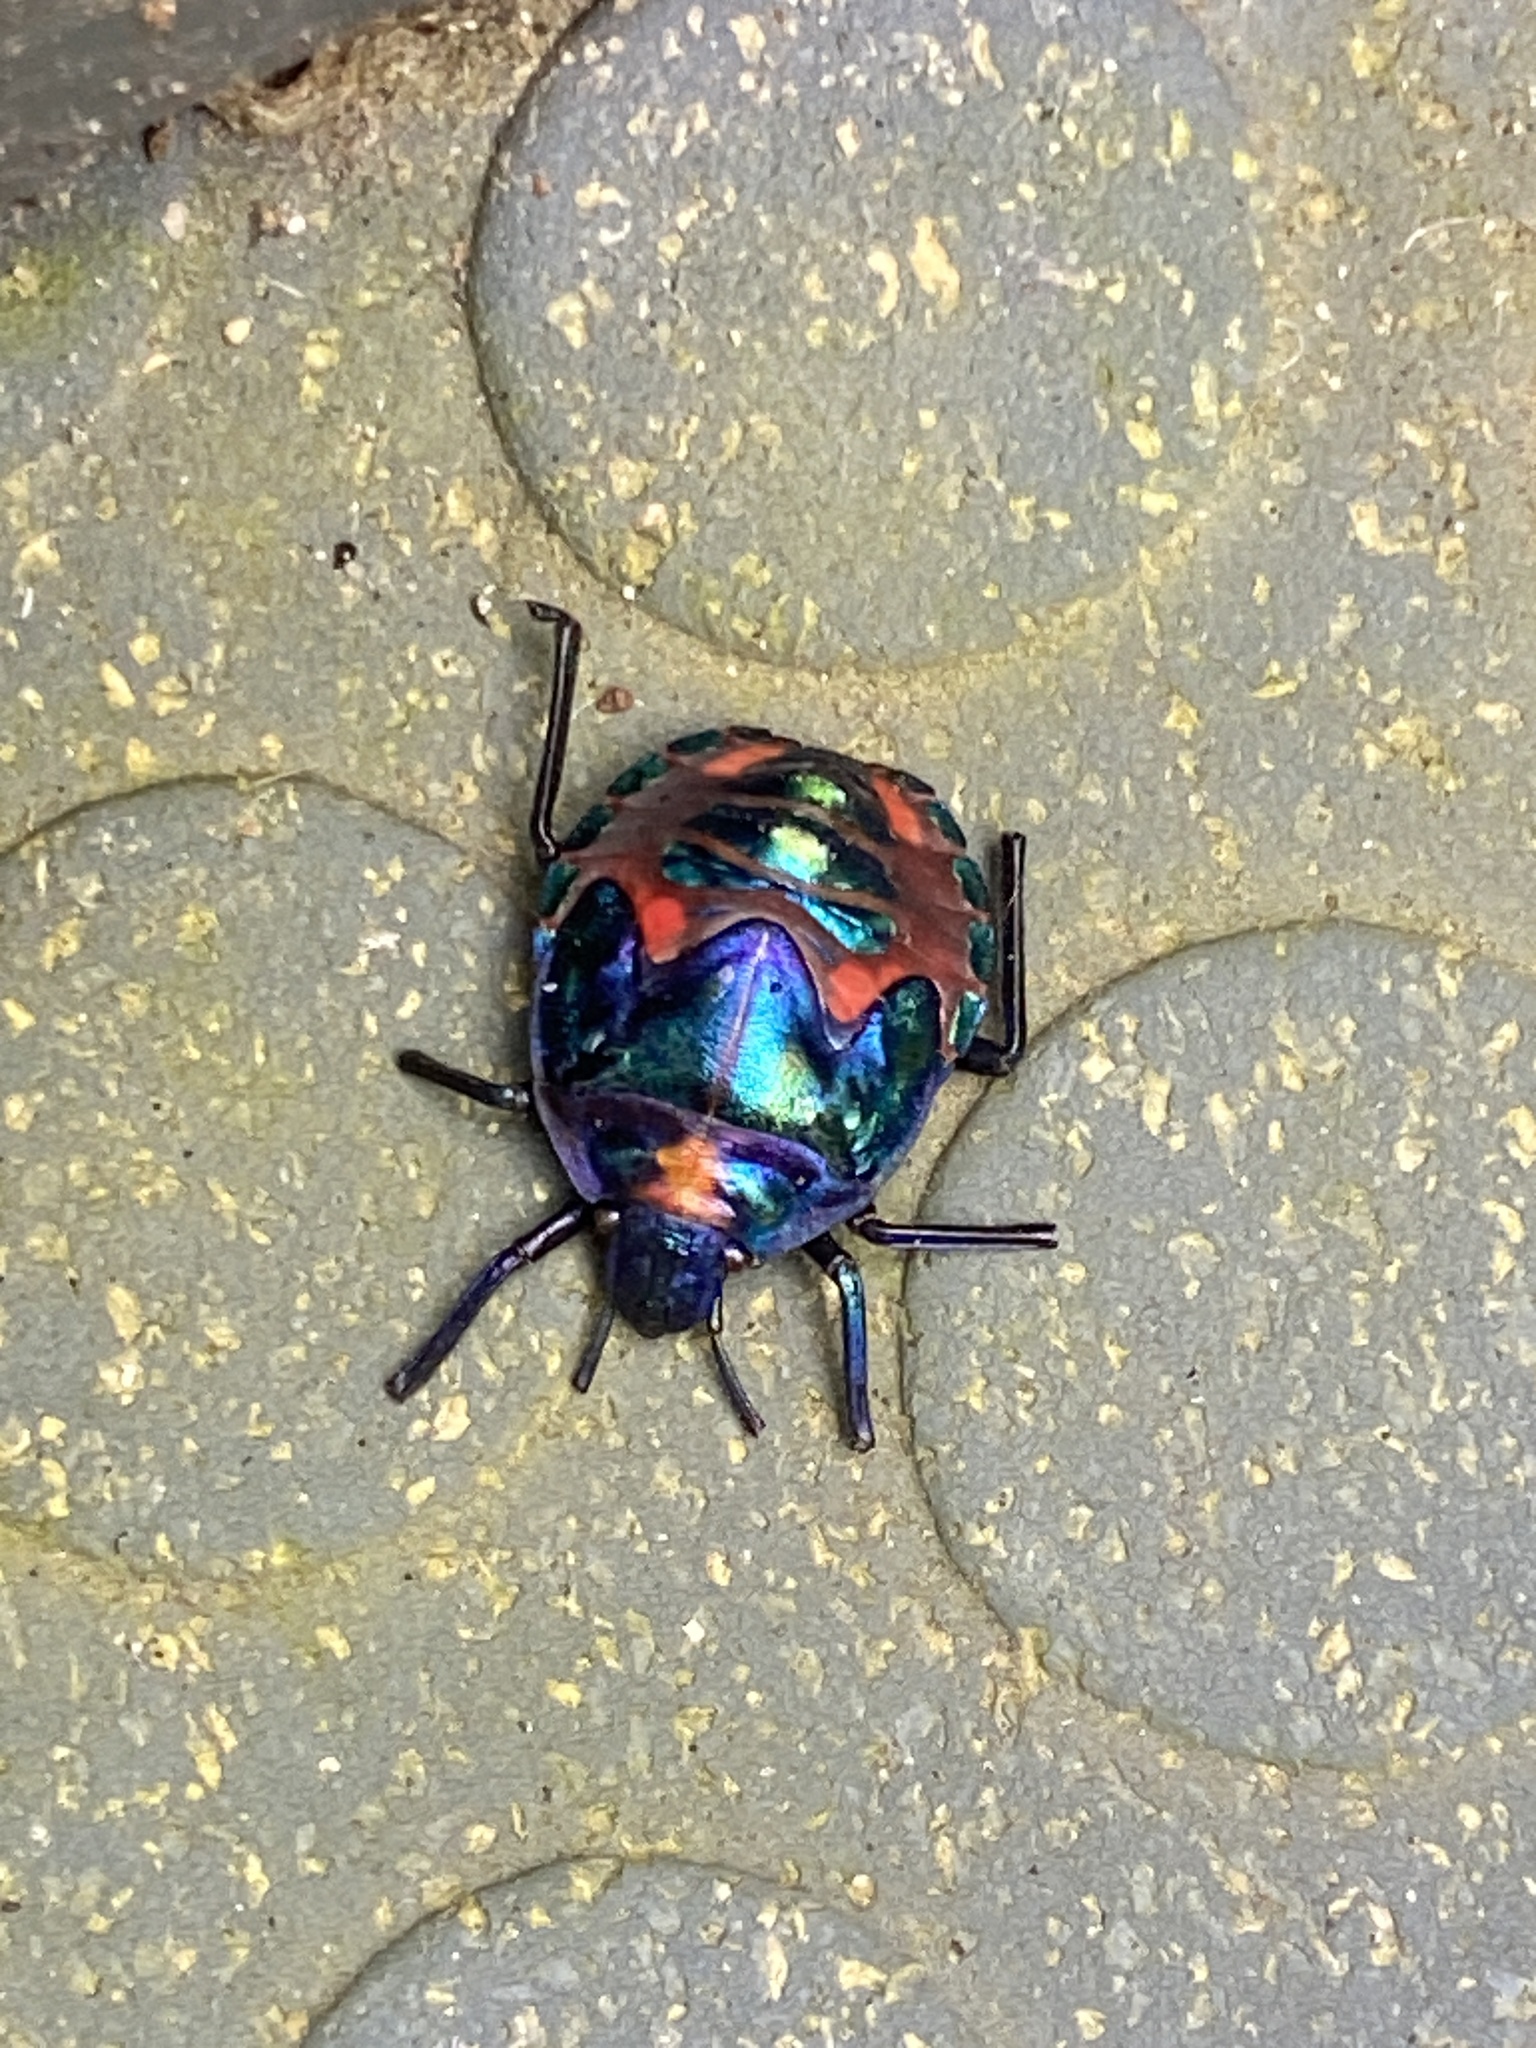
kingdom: Animalia
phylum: Arthropoda
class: Insecta
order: Hemiptera
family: Scutelleridae
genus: Tectocoris
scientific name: Tectocoris diophthalmus
